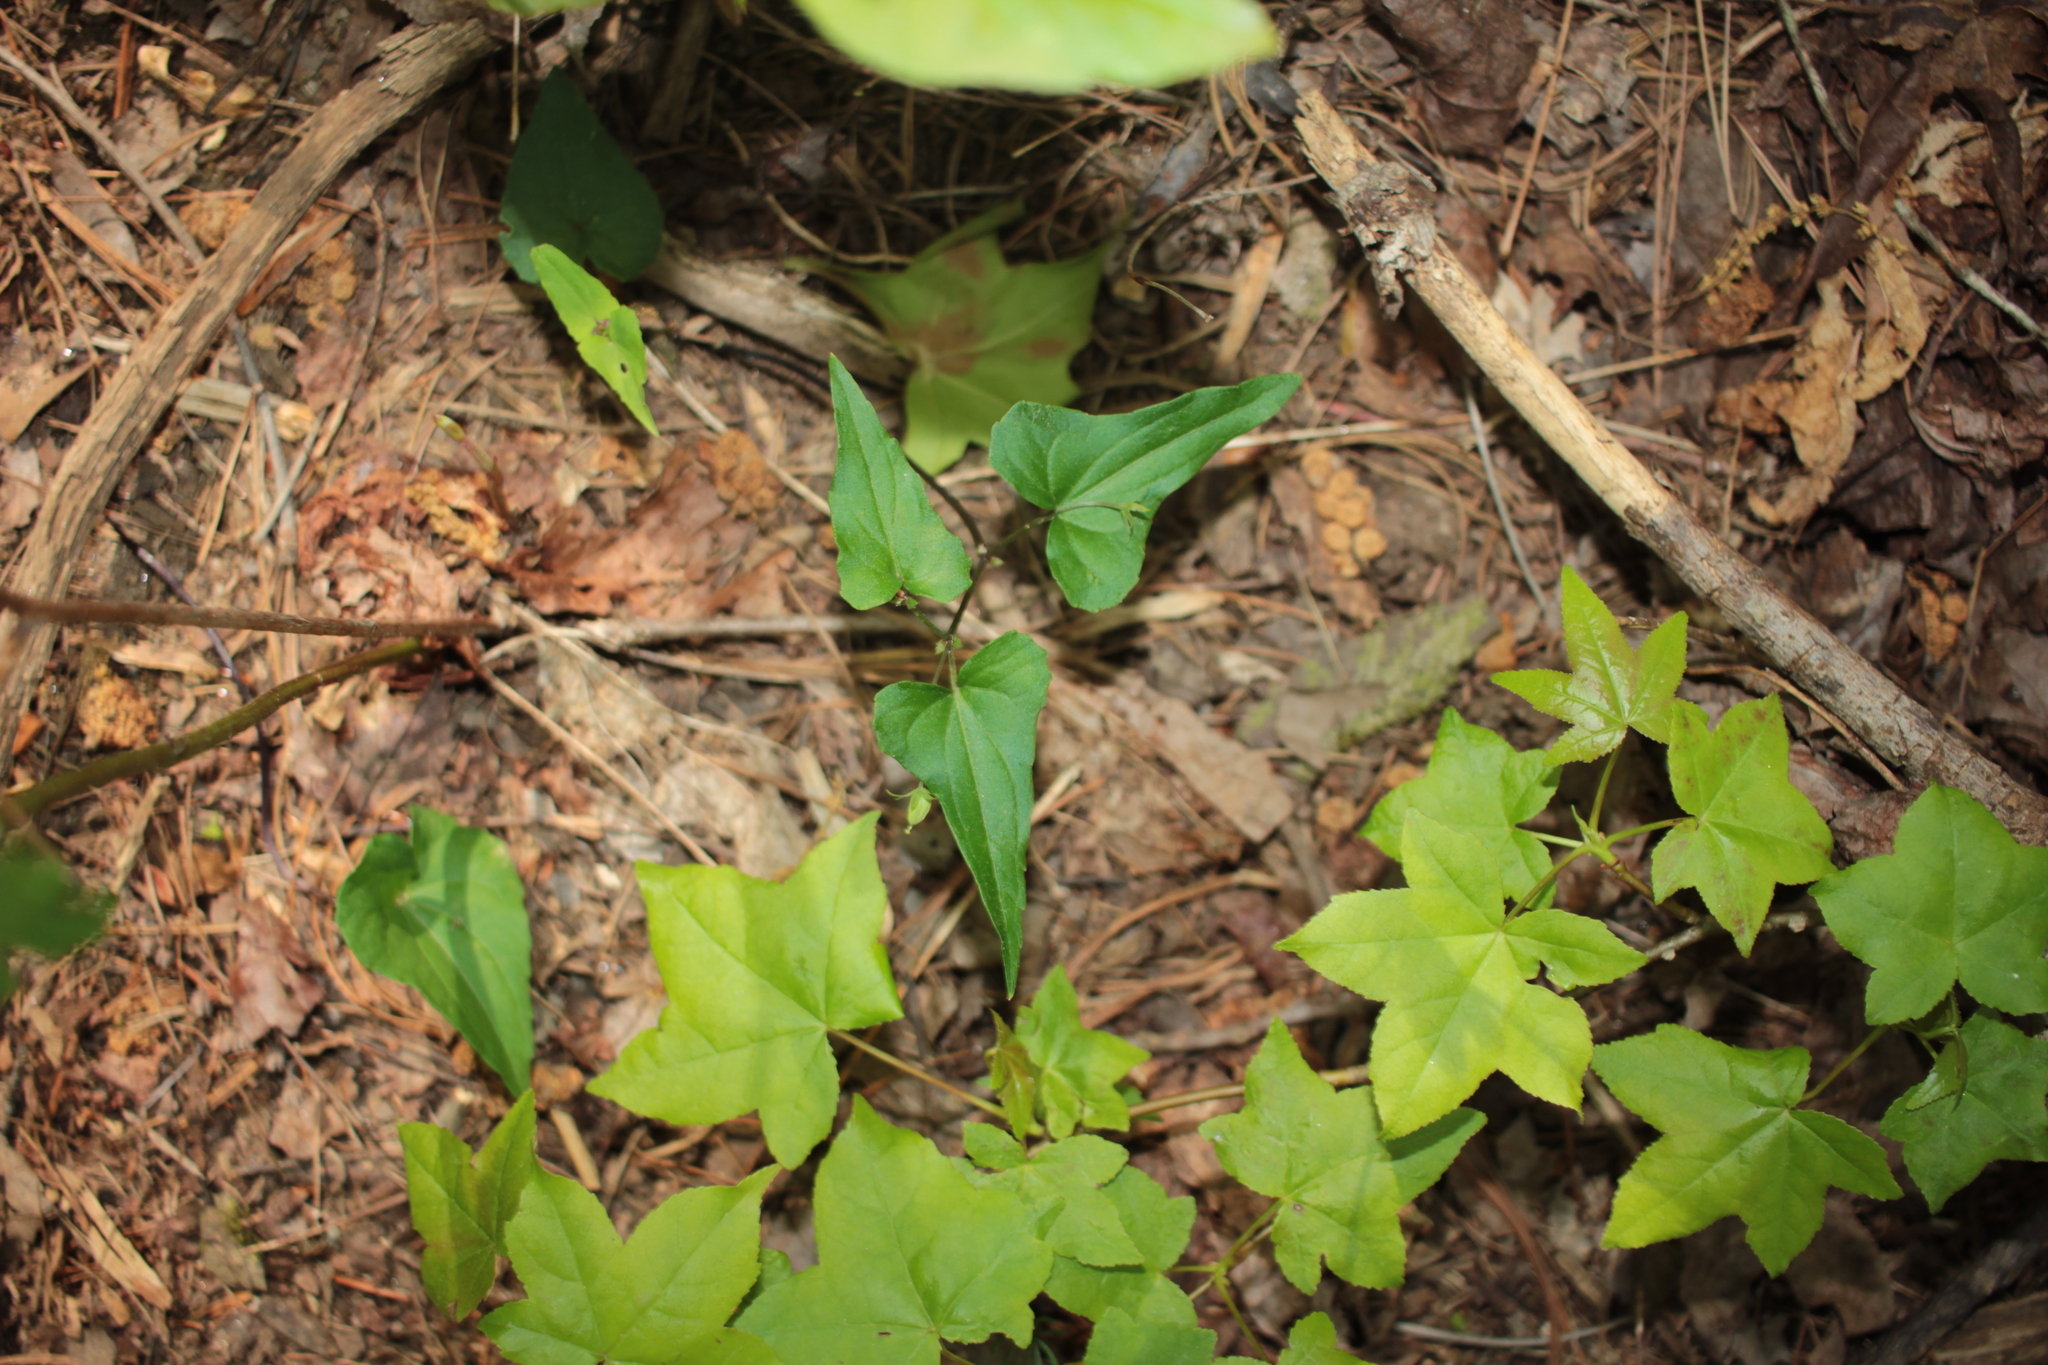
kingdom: Plantae
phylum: Tracheophyta
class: Magnoliopsida
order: Malpighiales
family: Violaceae
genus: Viola
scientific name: Viola hastata
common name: Spear-leaf violet
